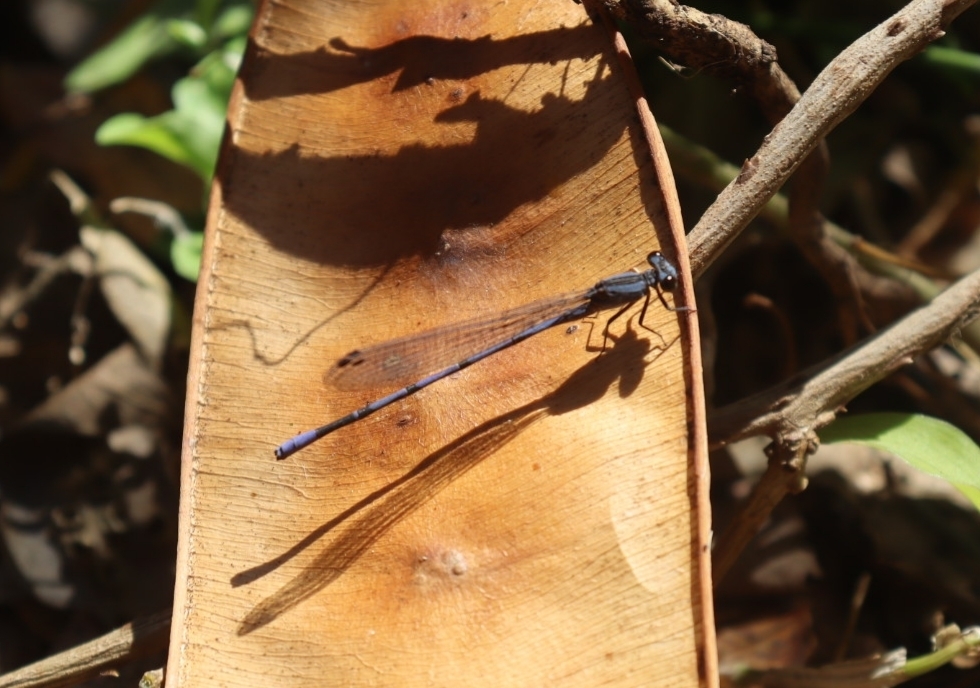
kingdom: Animalia
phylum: Arthropoda
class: Insecta
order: Odonata
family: Coenagrionidae
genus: Argia
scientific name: Argia funebris
